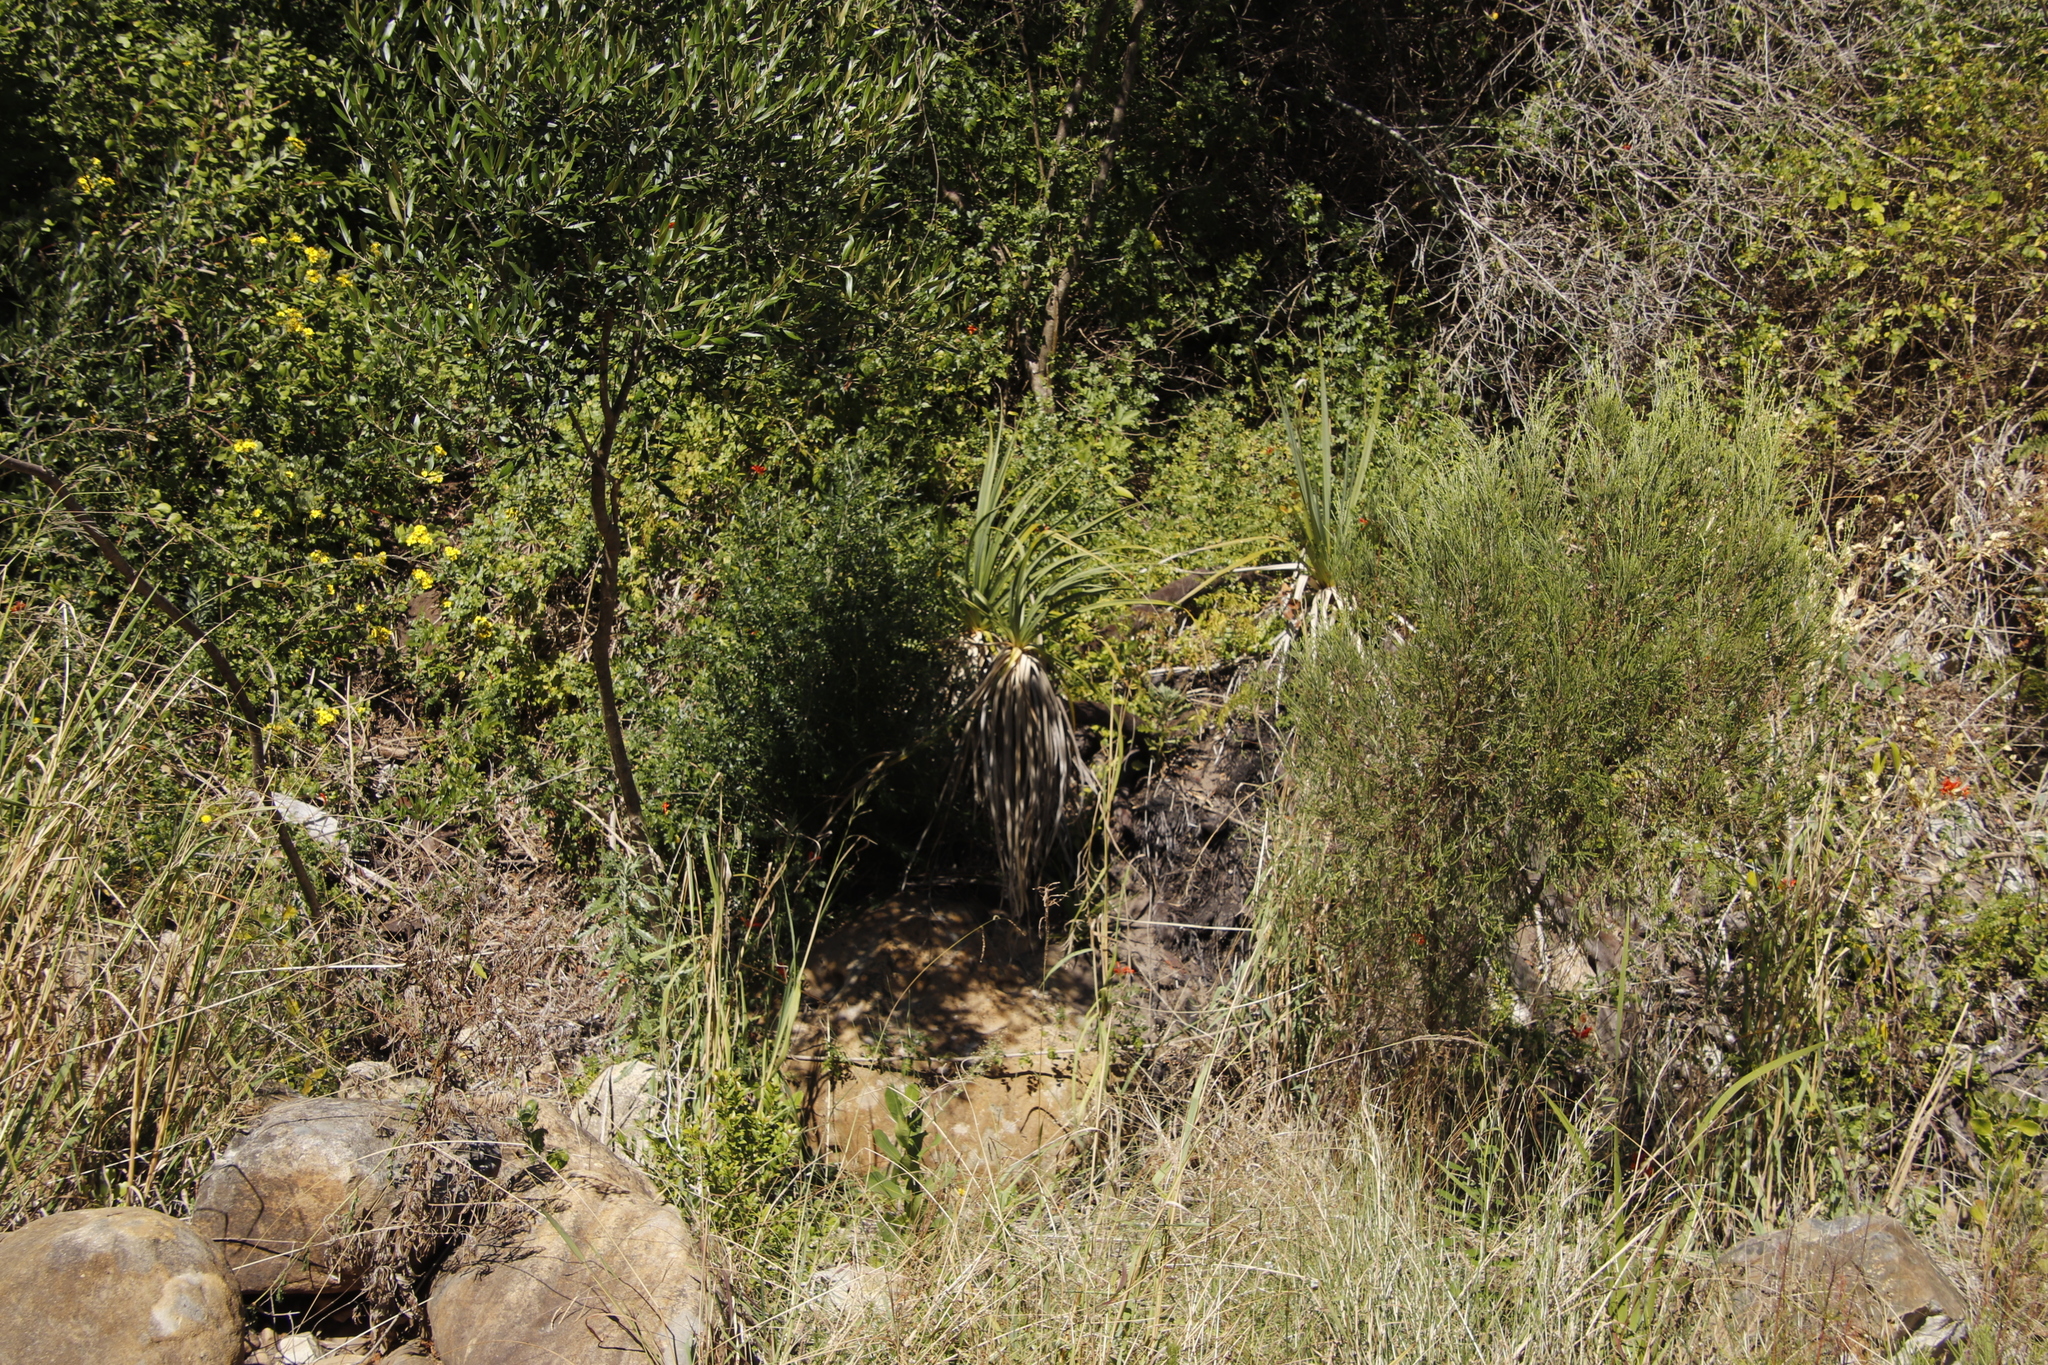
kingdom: Plantae
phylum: Tracheophyta
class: Liliopsida
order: Poales
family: Thurniaceae
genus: Prionium
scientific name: Prionium serratum
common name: Palmiet
